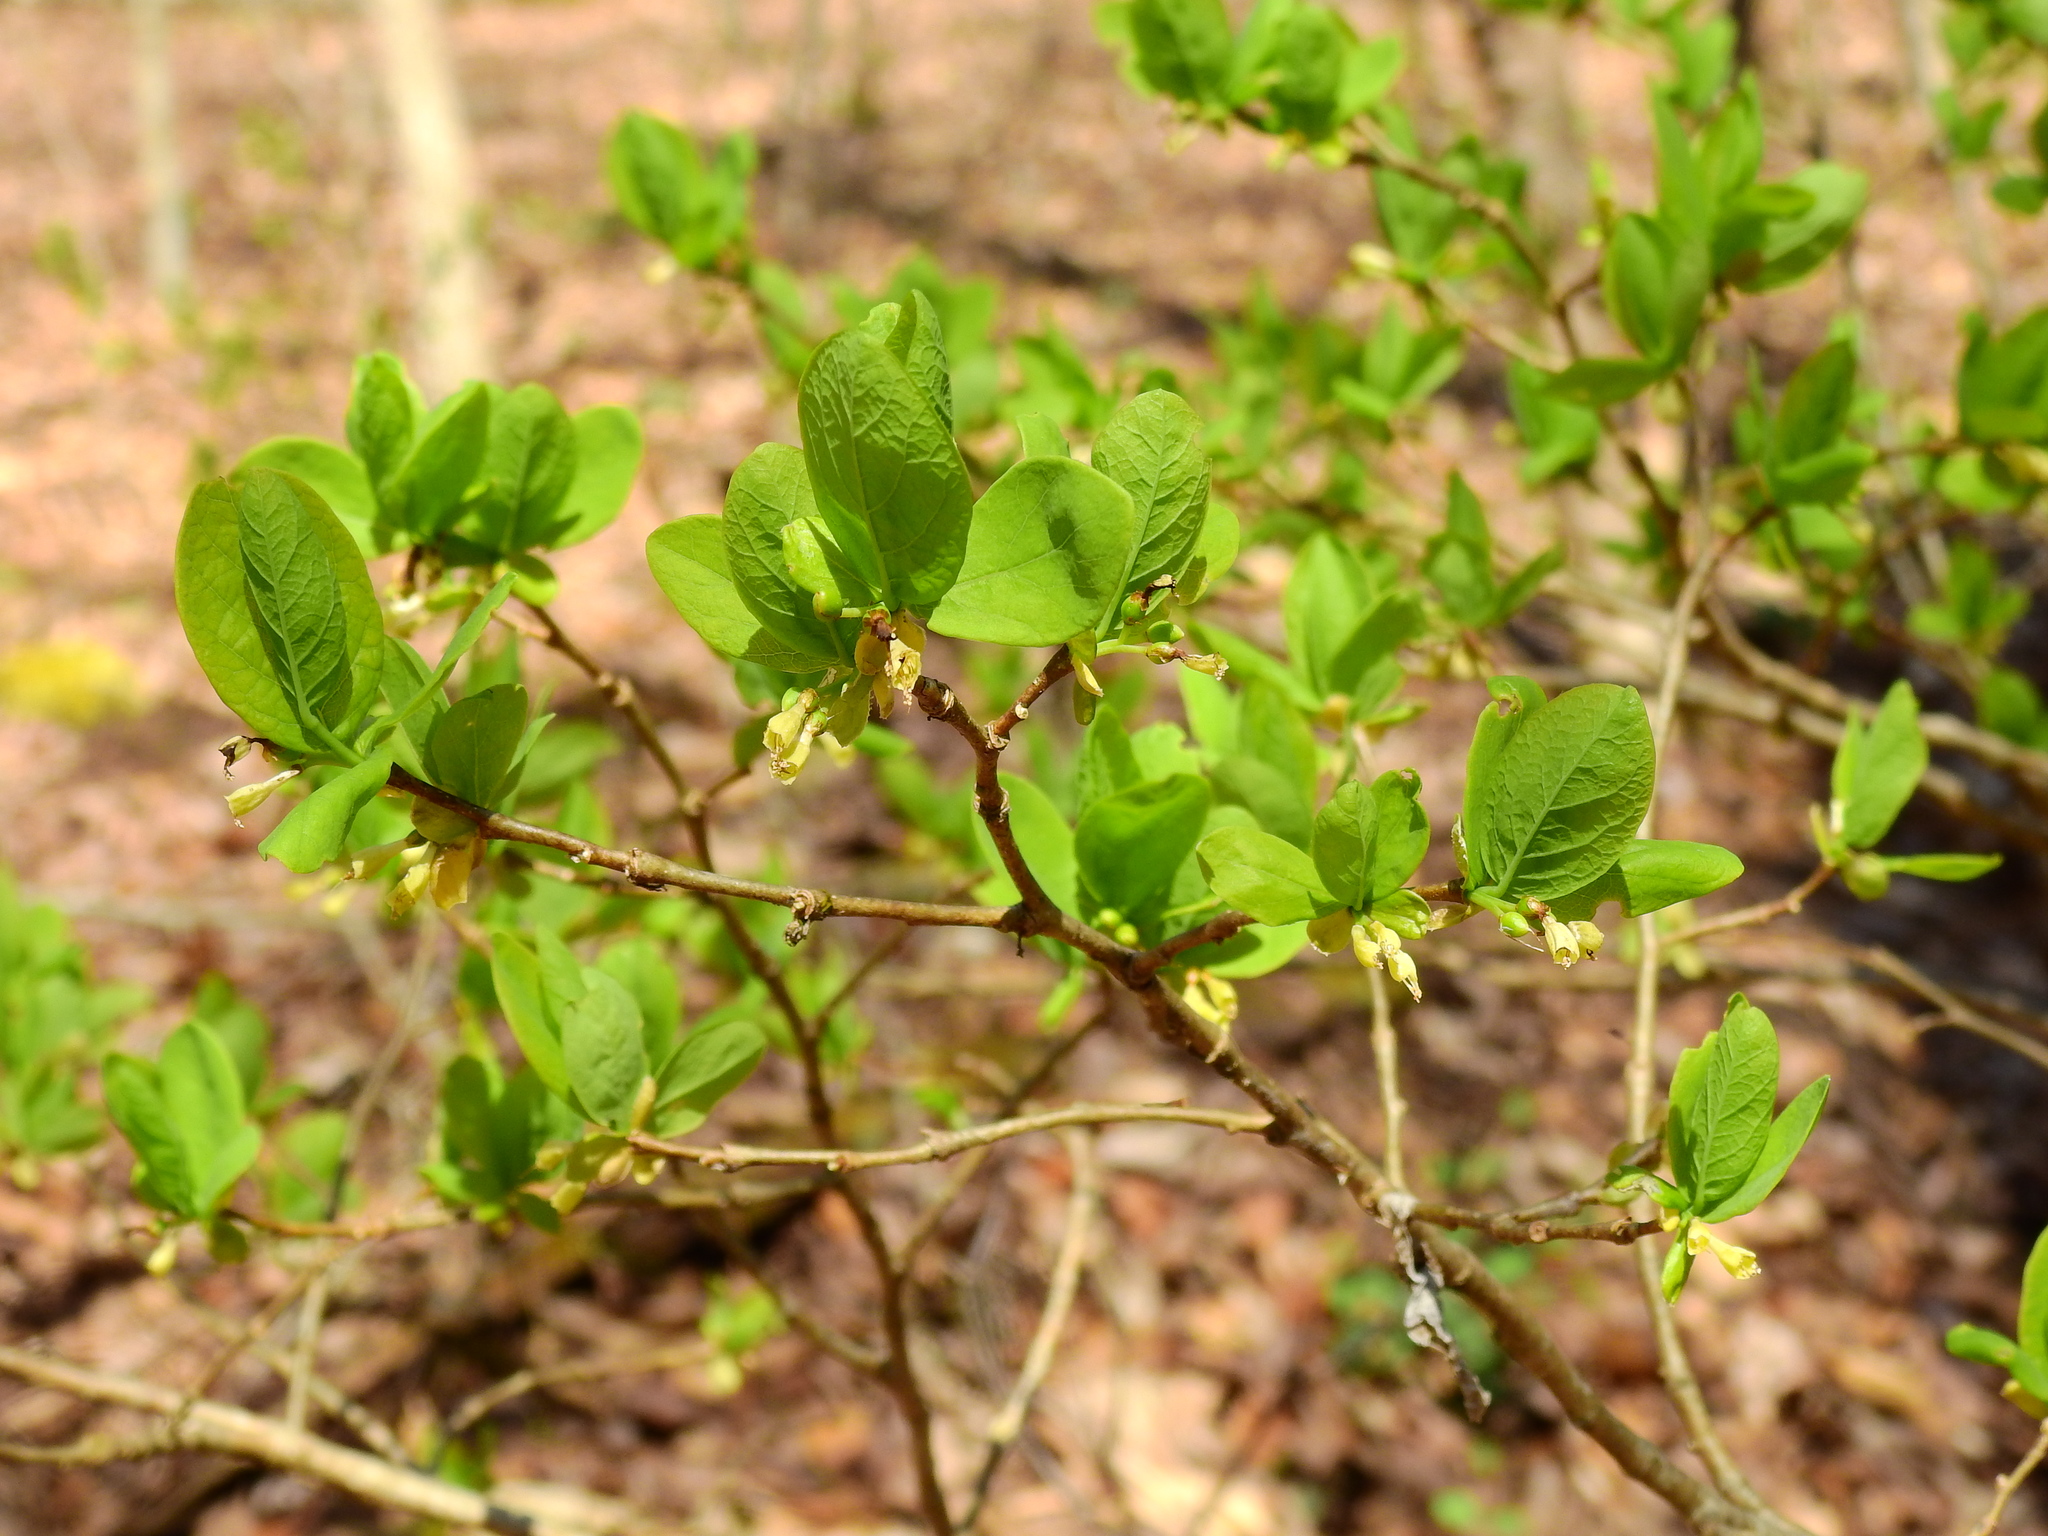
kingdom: Plantae
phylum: Tracheophyta
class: Magnoliopsida
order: Malvales
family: Thymelaeaceae
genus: Dirca
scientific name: Dirca palustris
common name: Leatherwood
